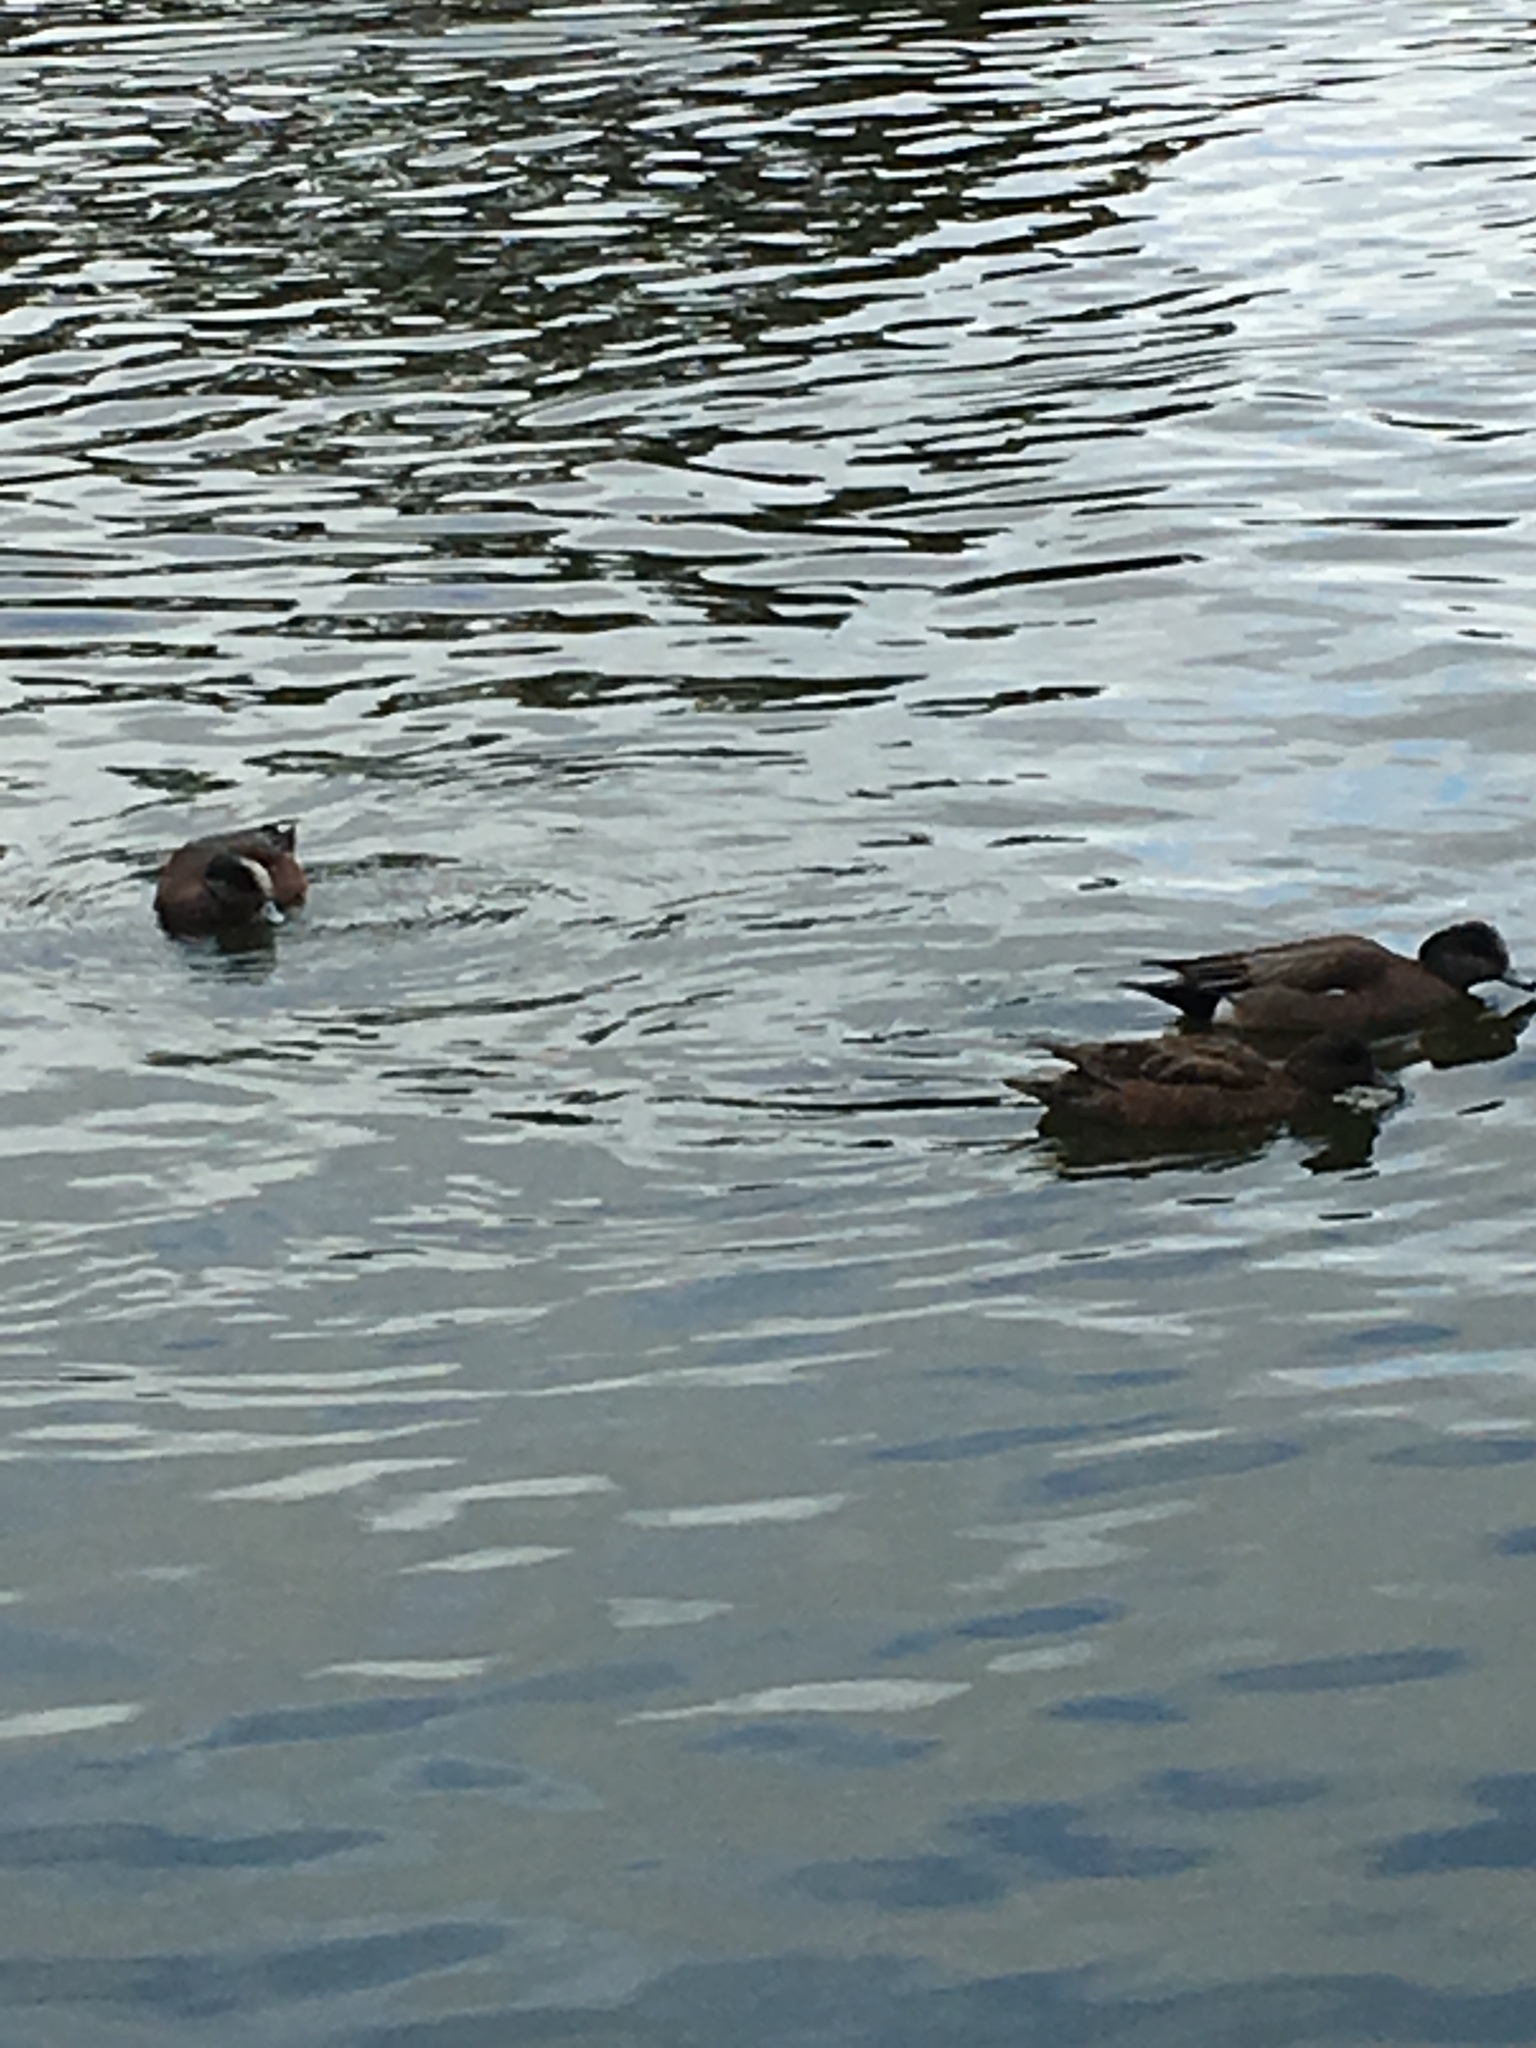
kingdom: Animalia
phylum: Chordata
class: Aves
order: Anseriformes
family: Anatidae
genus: Mareca
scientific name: Mareca americana
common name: American wigeon
